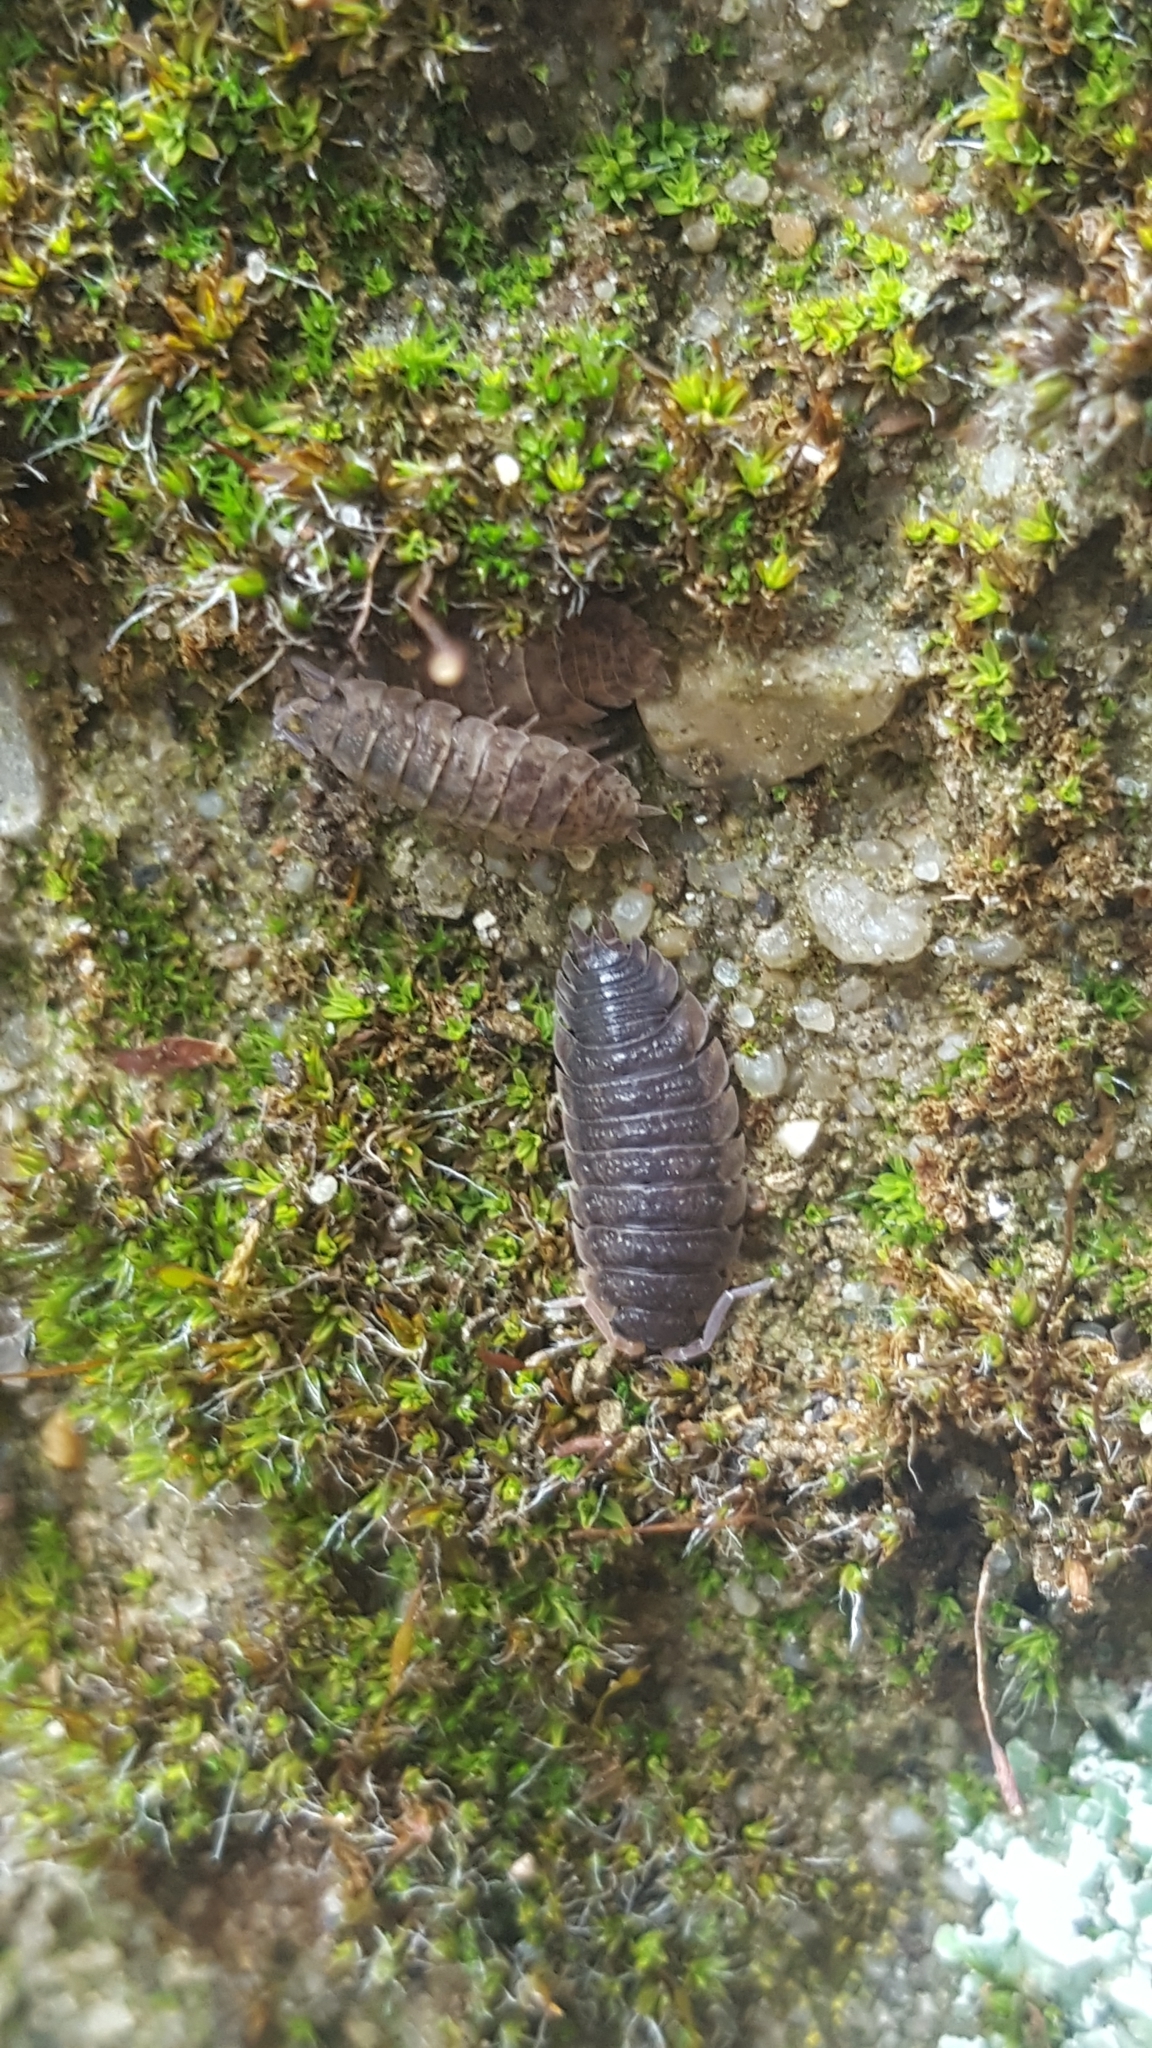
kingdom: Animalia
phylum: Arthropoda
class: Malacostraca
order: Isopoda
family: Porcellionidae
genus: Porcellio
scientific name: Porcellio scaber
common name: Common rough woodlouse
